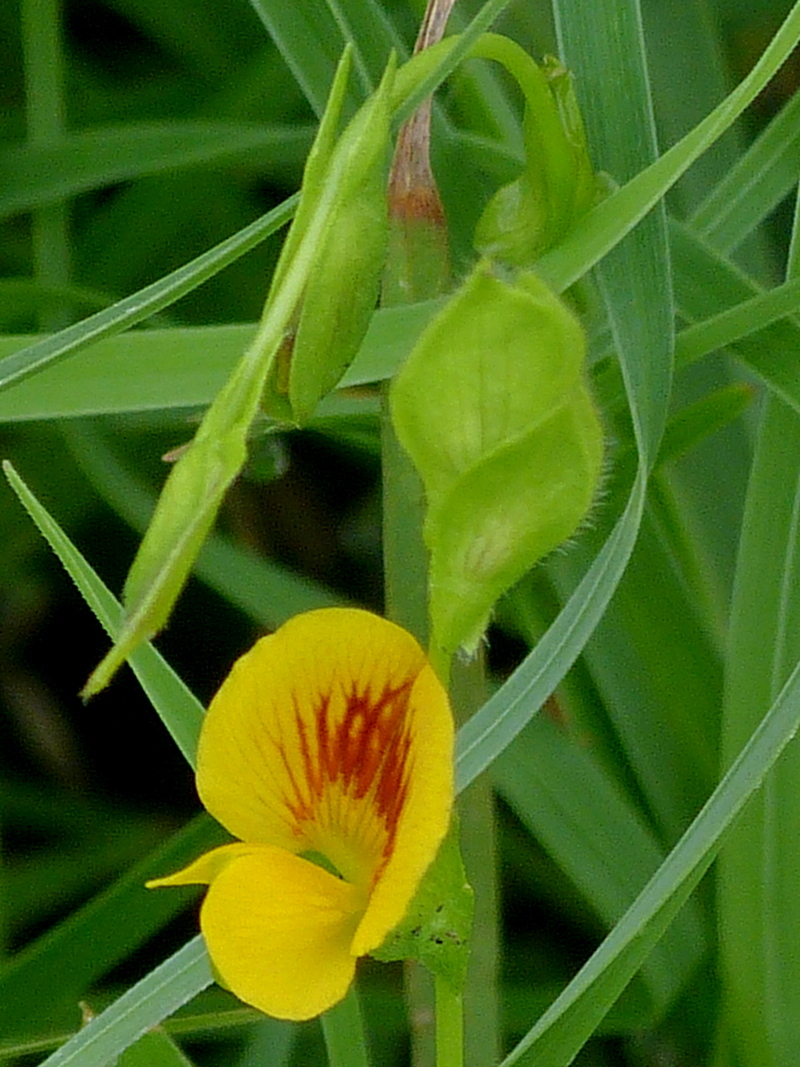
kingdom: Plantae
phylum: Tracheophyta
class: Magnoliopsida
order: Fabales
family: Fabaceae
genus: Zornia
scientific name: Zornia dyctiocarpa
